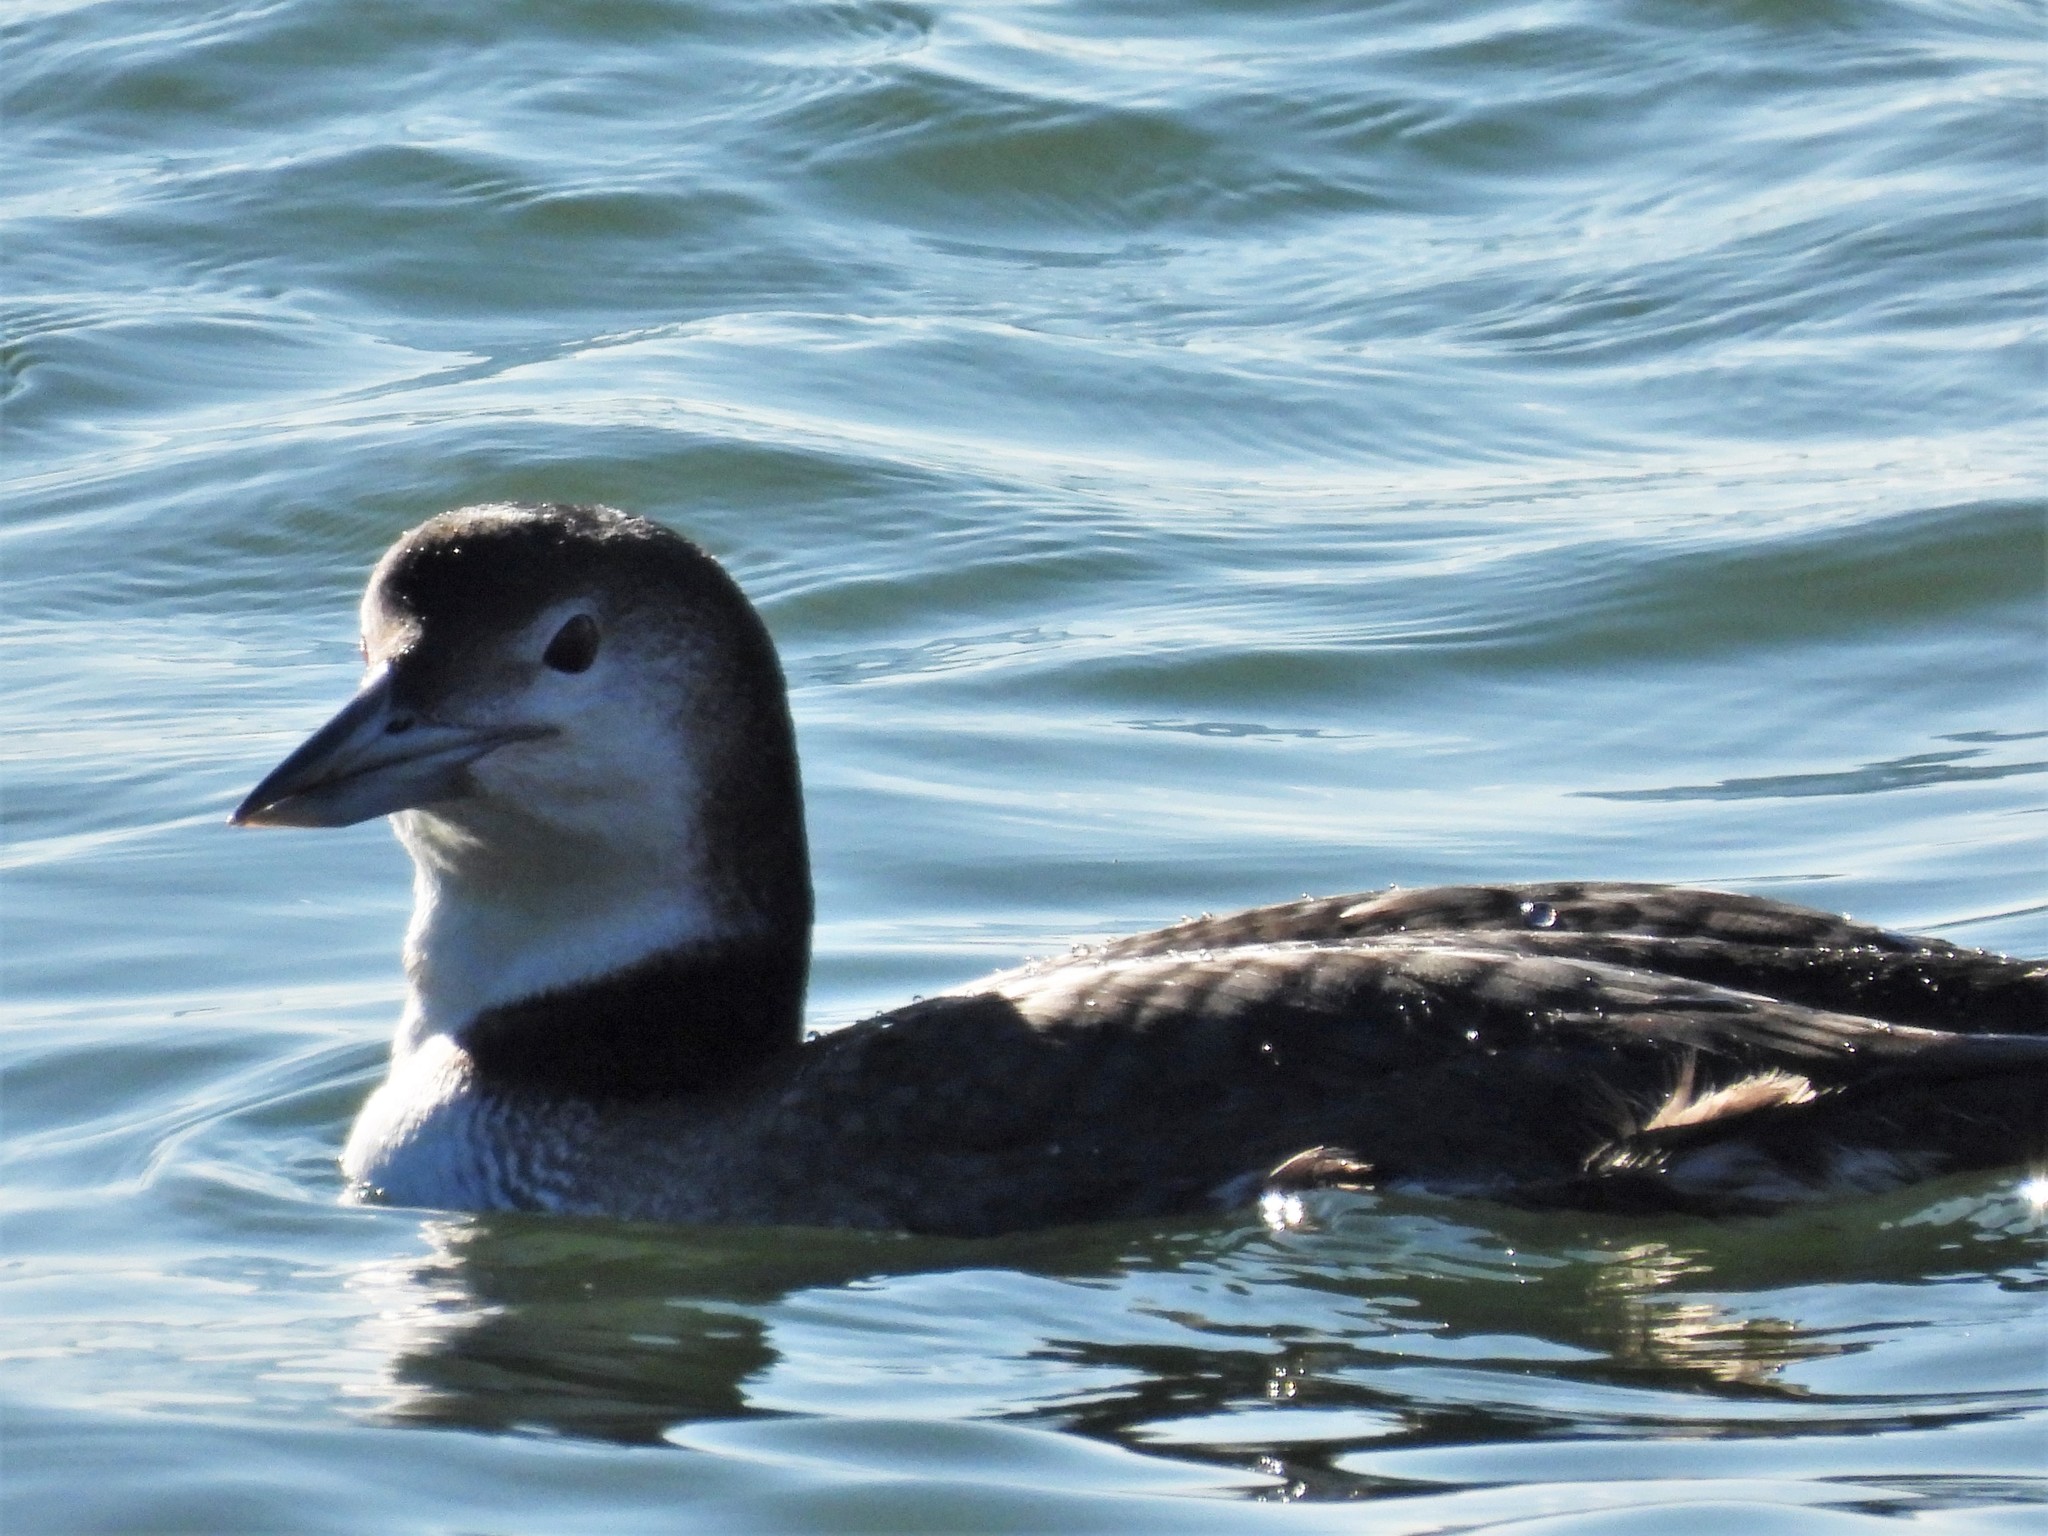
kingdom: Animalia
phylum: Chordata
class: Aves
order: Gaviiformes
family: Gaviidae
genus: Gavia
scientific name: Gavia immer
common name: Common loon
